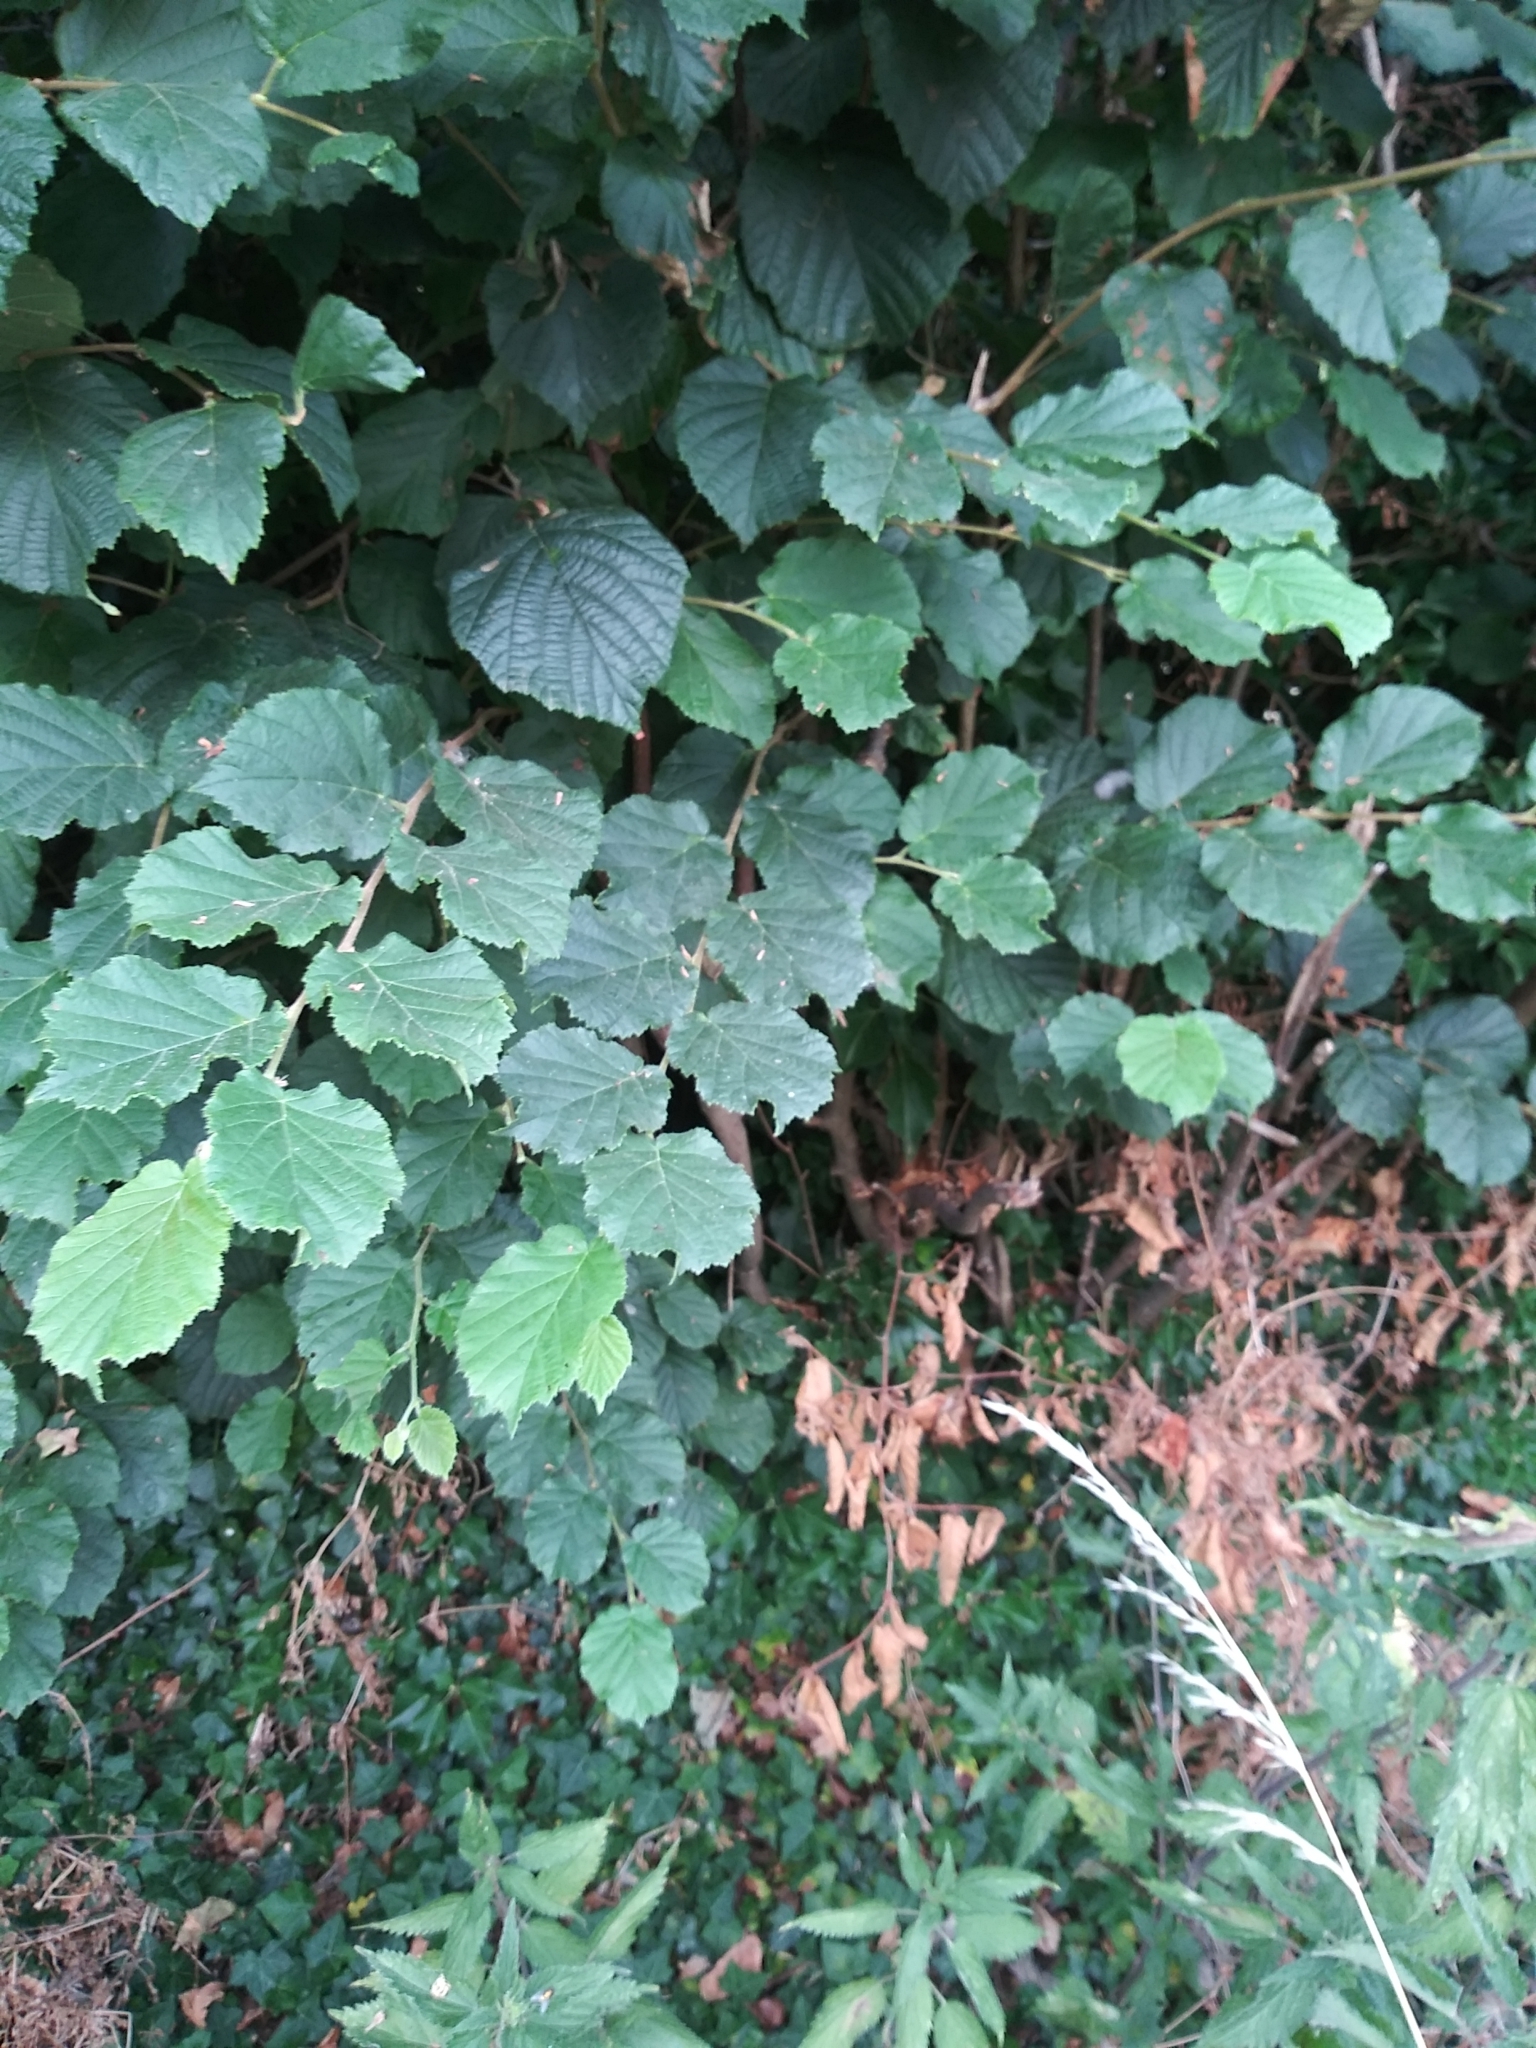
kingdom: Plantae
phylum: Tracheophyta
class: Magnoliopsida
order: Fagales
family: Betulaceae
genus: Corylus
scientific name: Corylus avellana
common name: European hazel
